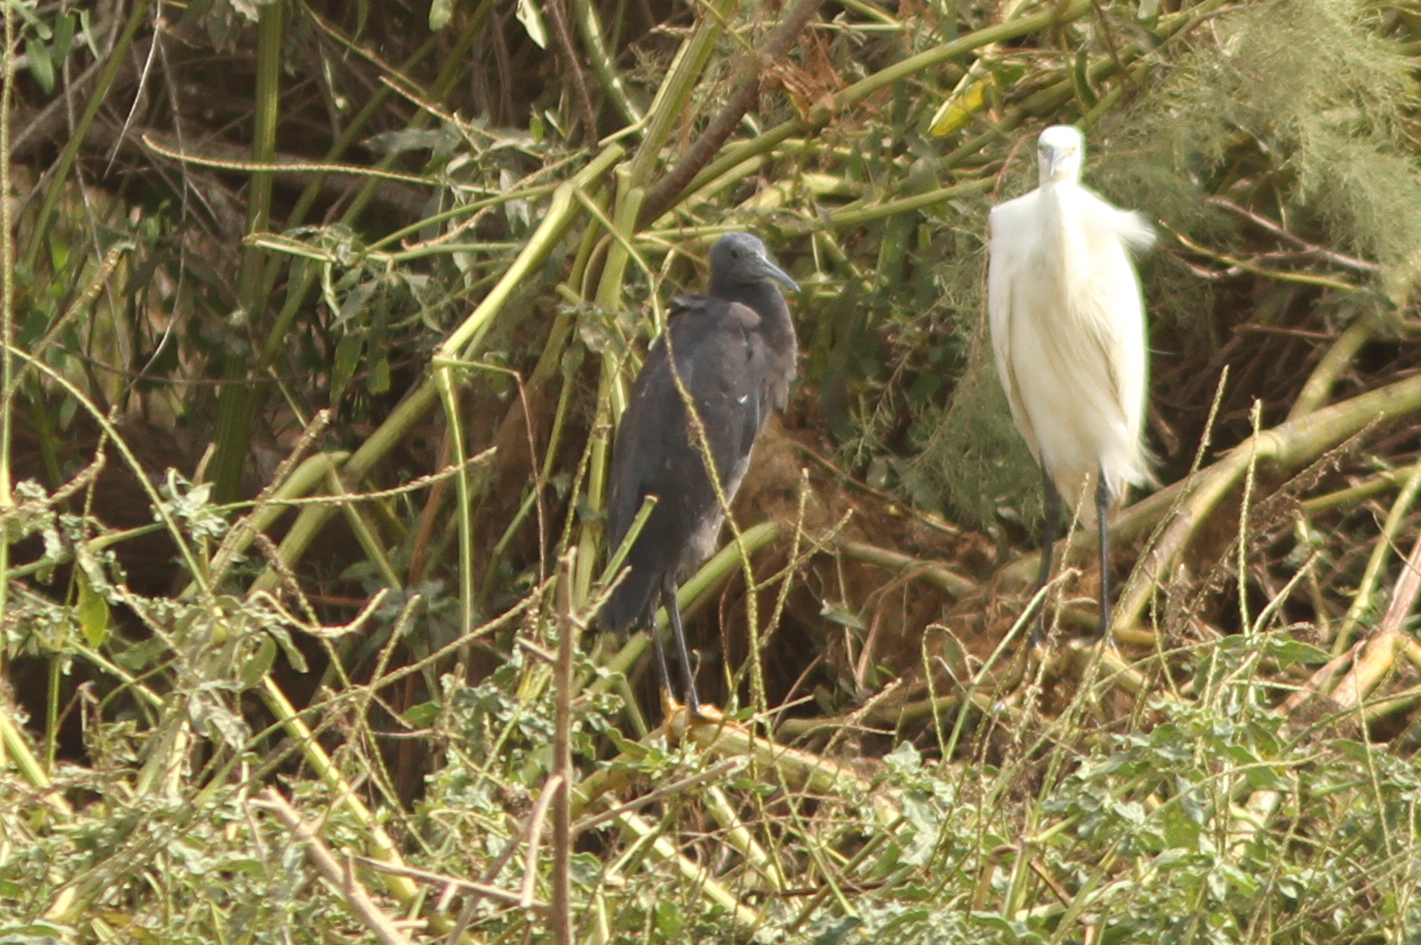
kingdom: Animalia
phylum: Chordata
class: Aves
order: Pelecaniformes
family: Ardeidae
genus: Egretta
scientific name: Egretta ardesiaca
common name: Black heron
